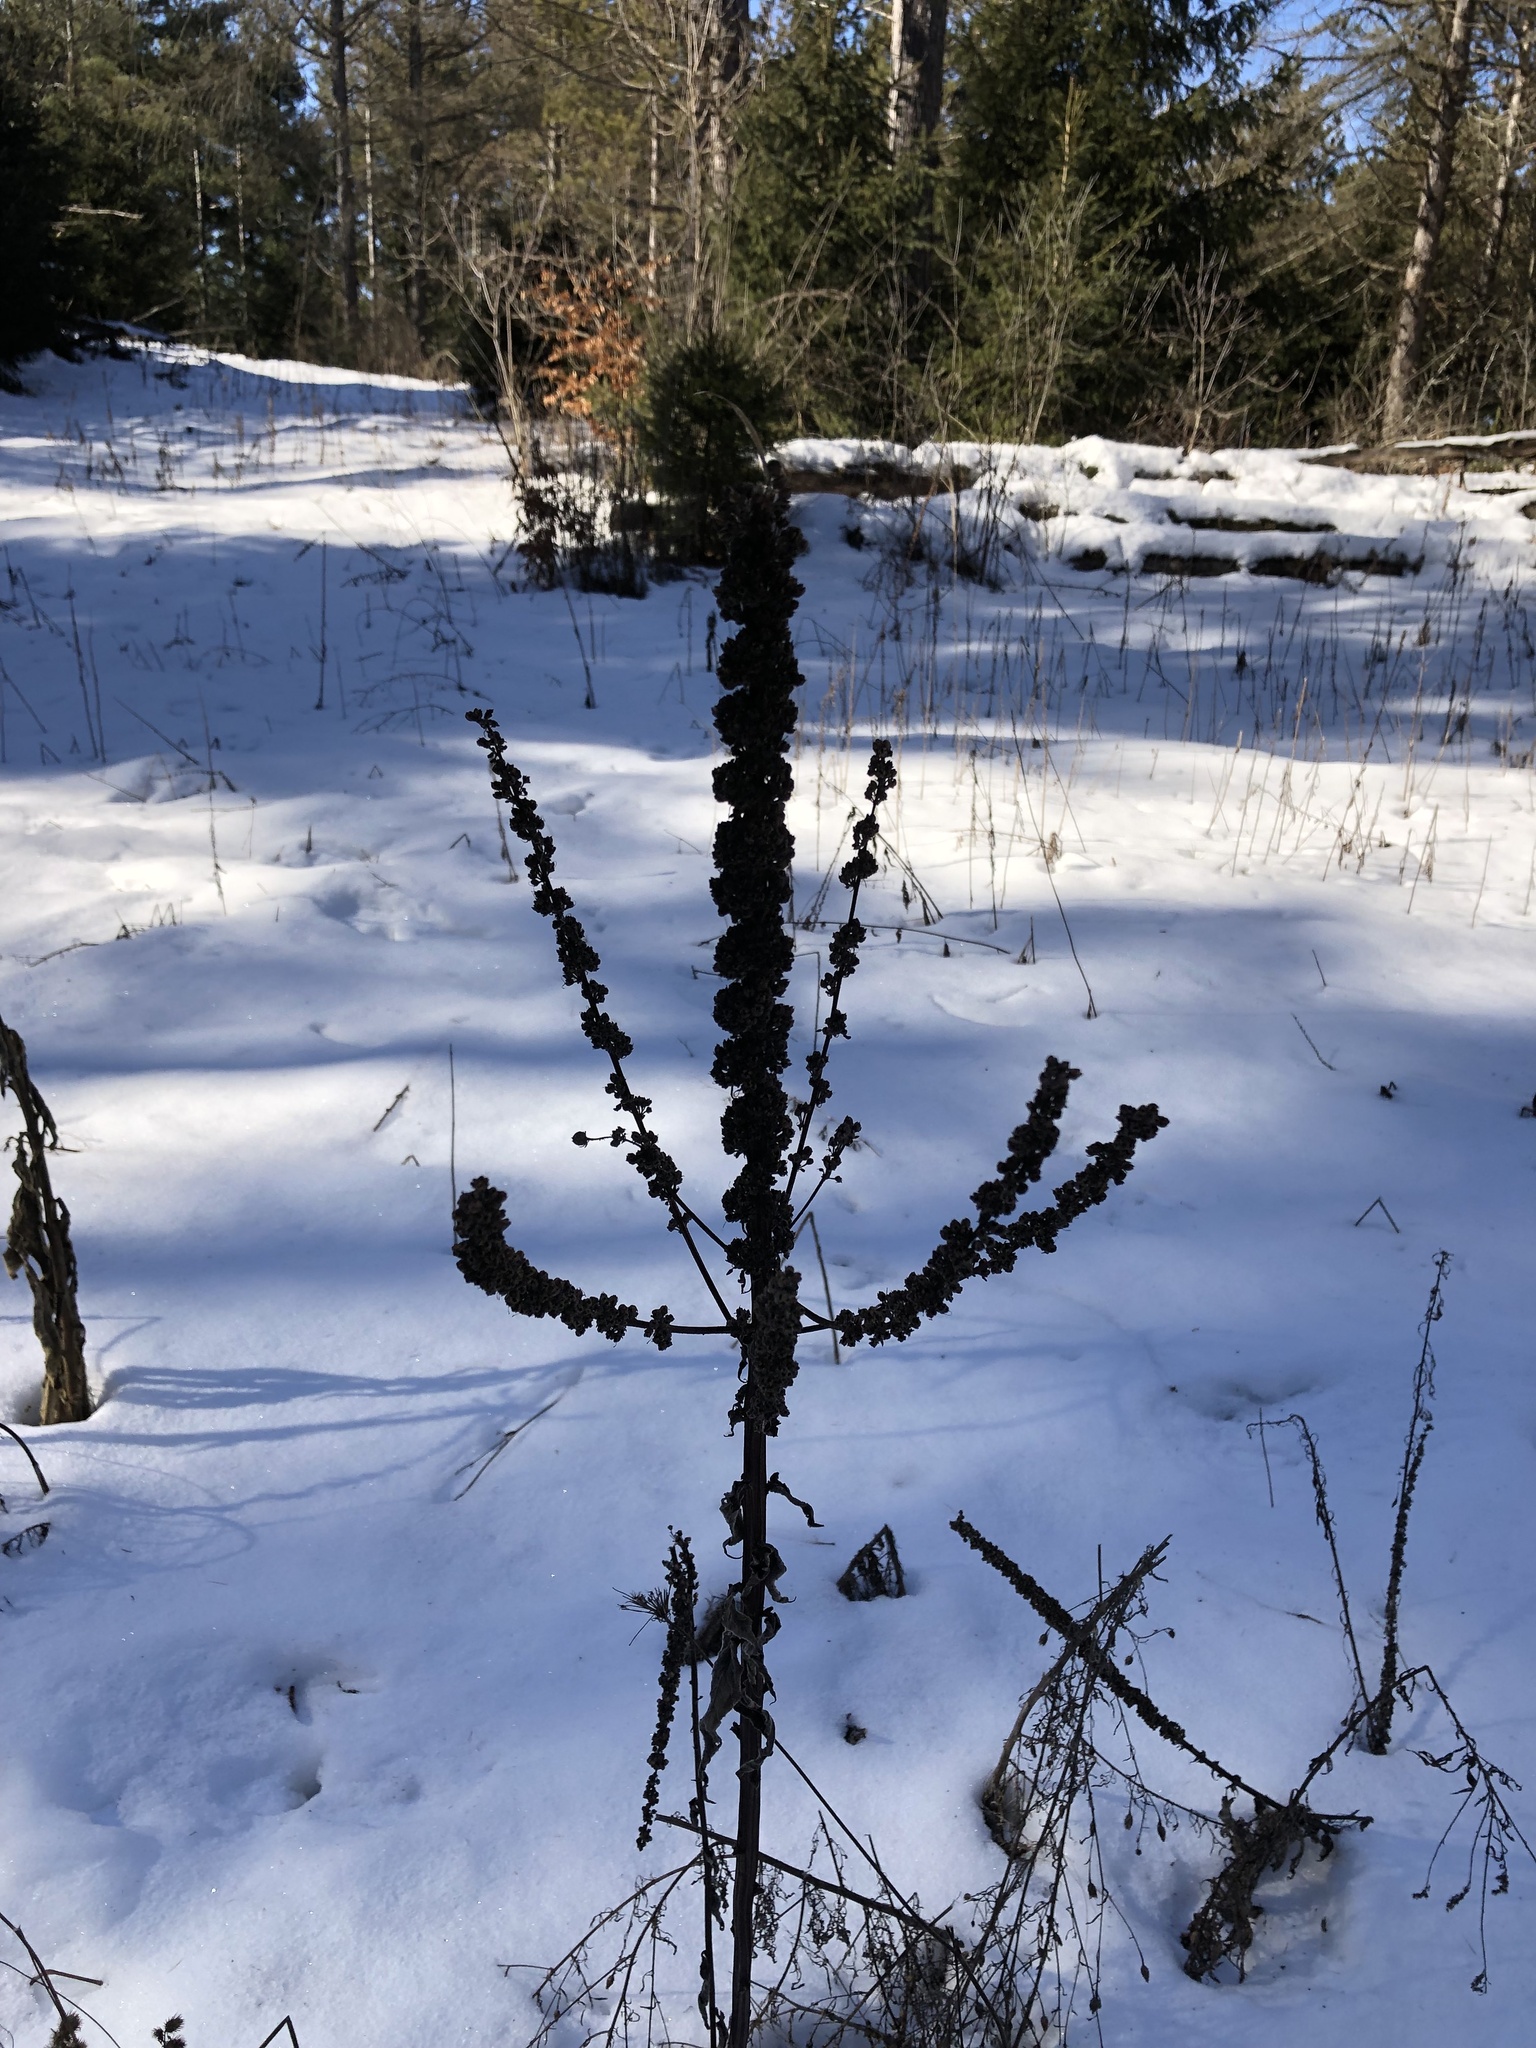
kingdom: Plantae
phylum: Tracheophyta
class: Magnoliopsida
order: Lamiales
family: Scrophulariaceae
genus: Verbascum
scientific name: Verbascum thapsus
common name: Common mullein
